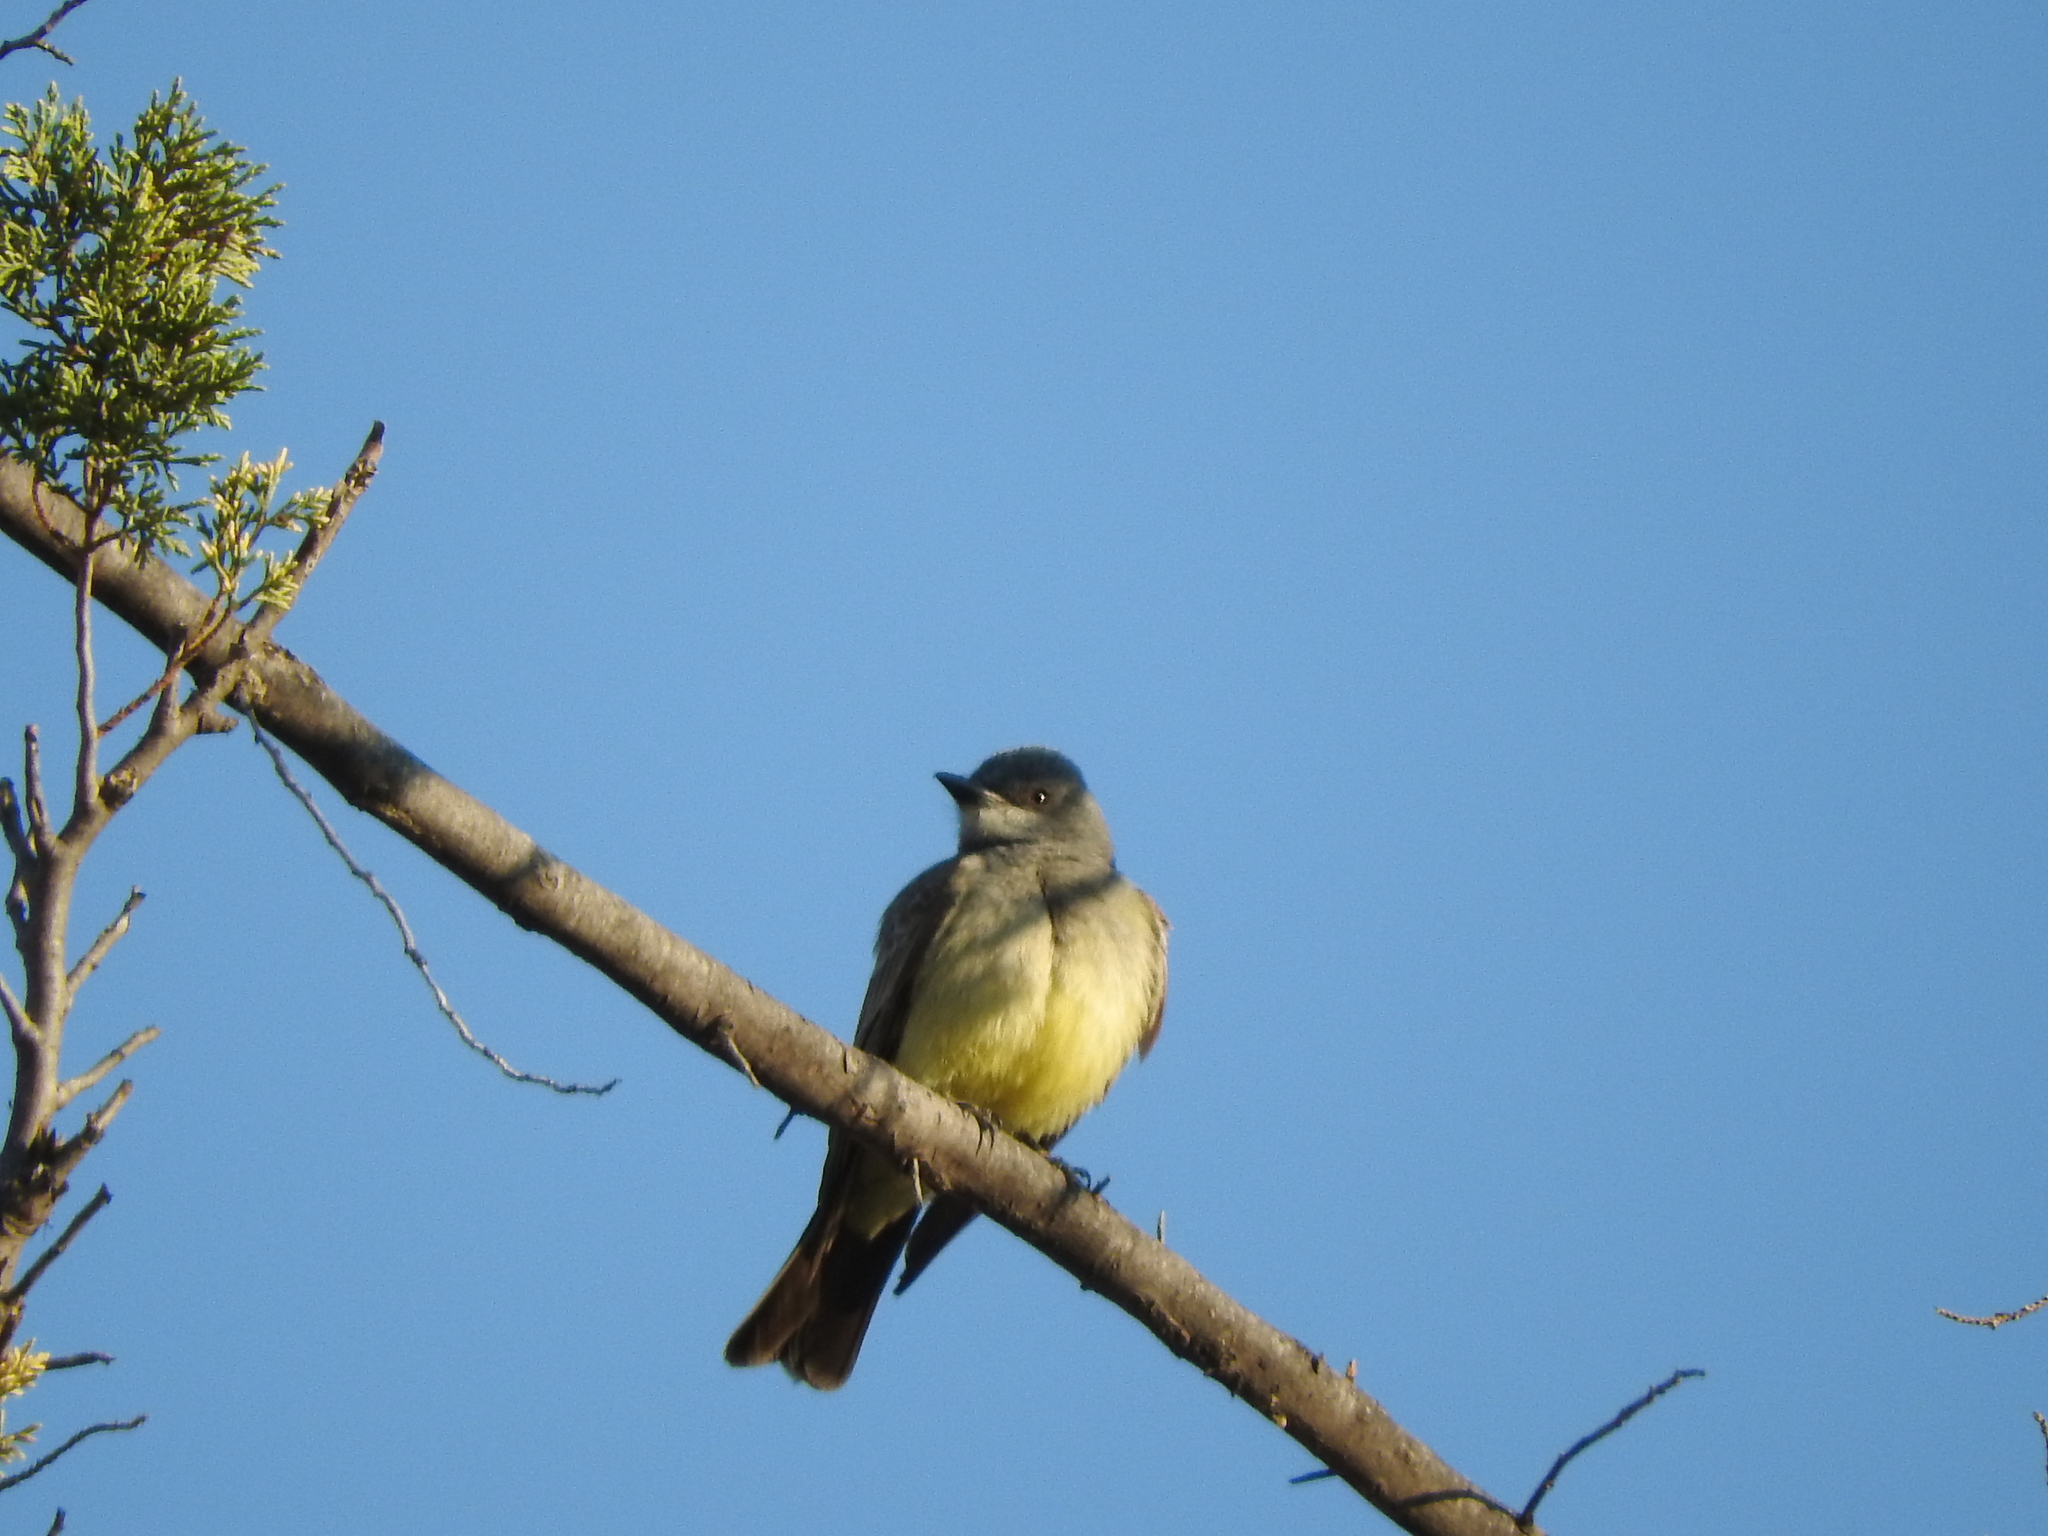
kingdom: Animalia
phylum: Chordata
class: Aves
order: Passeriformes
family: Tyrannidae
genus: Tyrannus
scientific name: Tyrannus vociferans
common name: Cassin's kingbird
